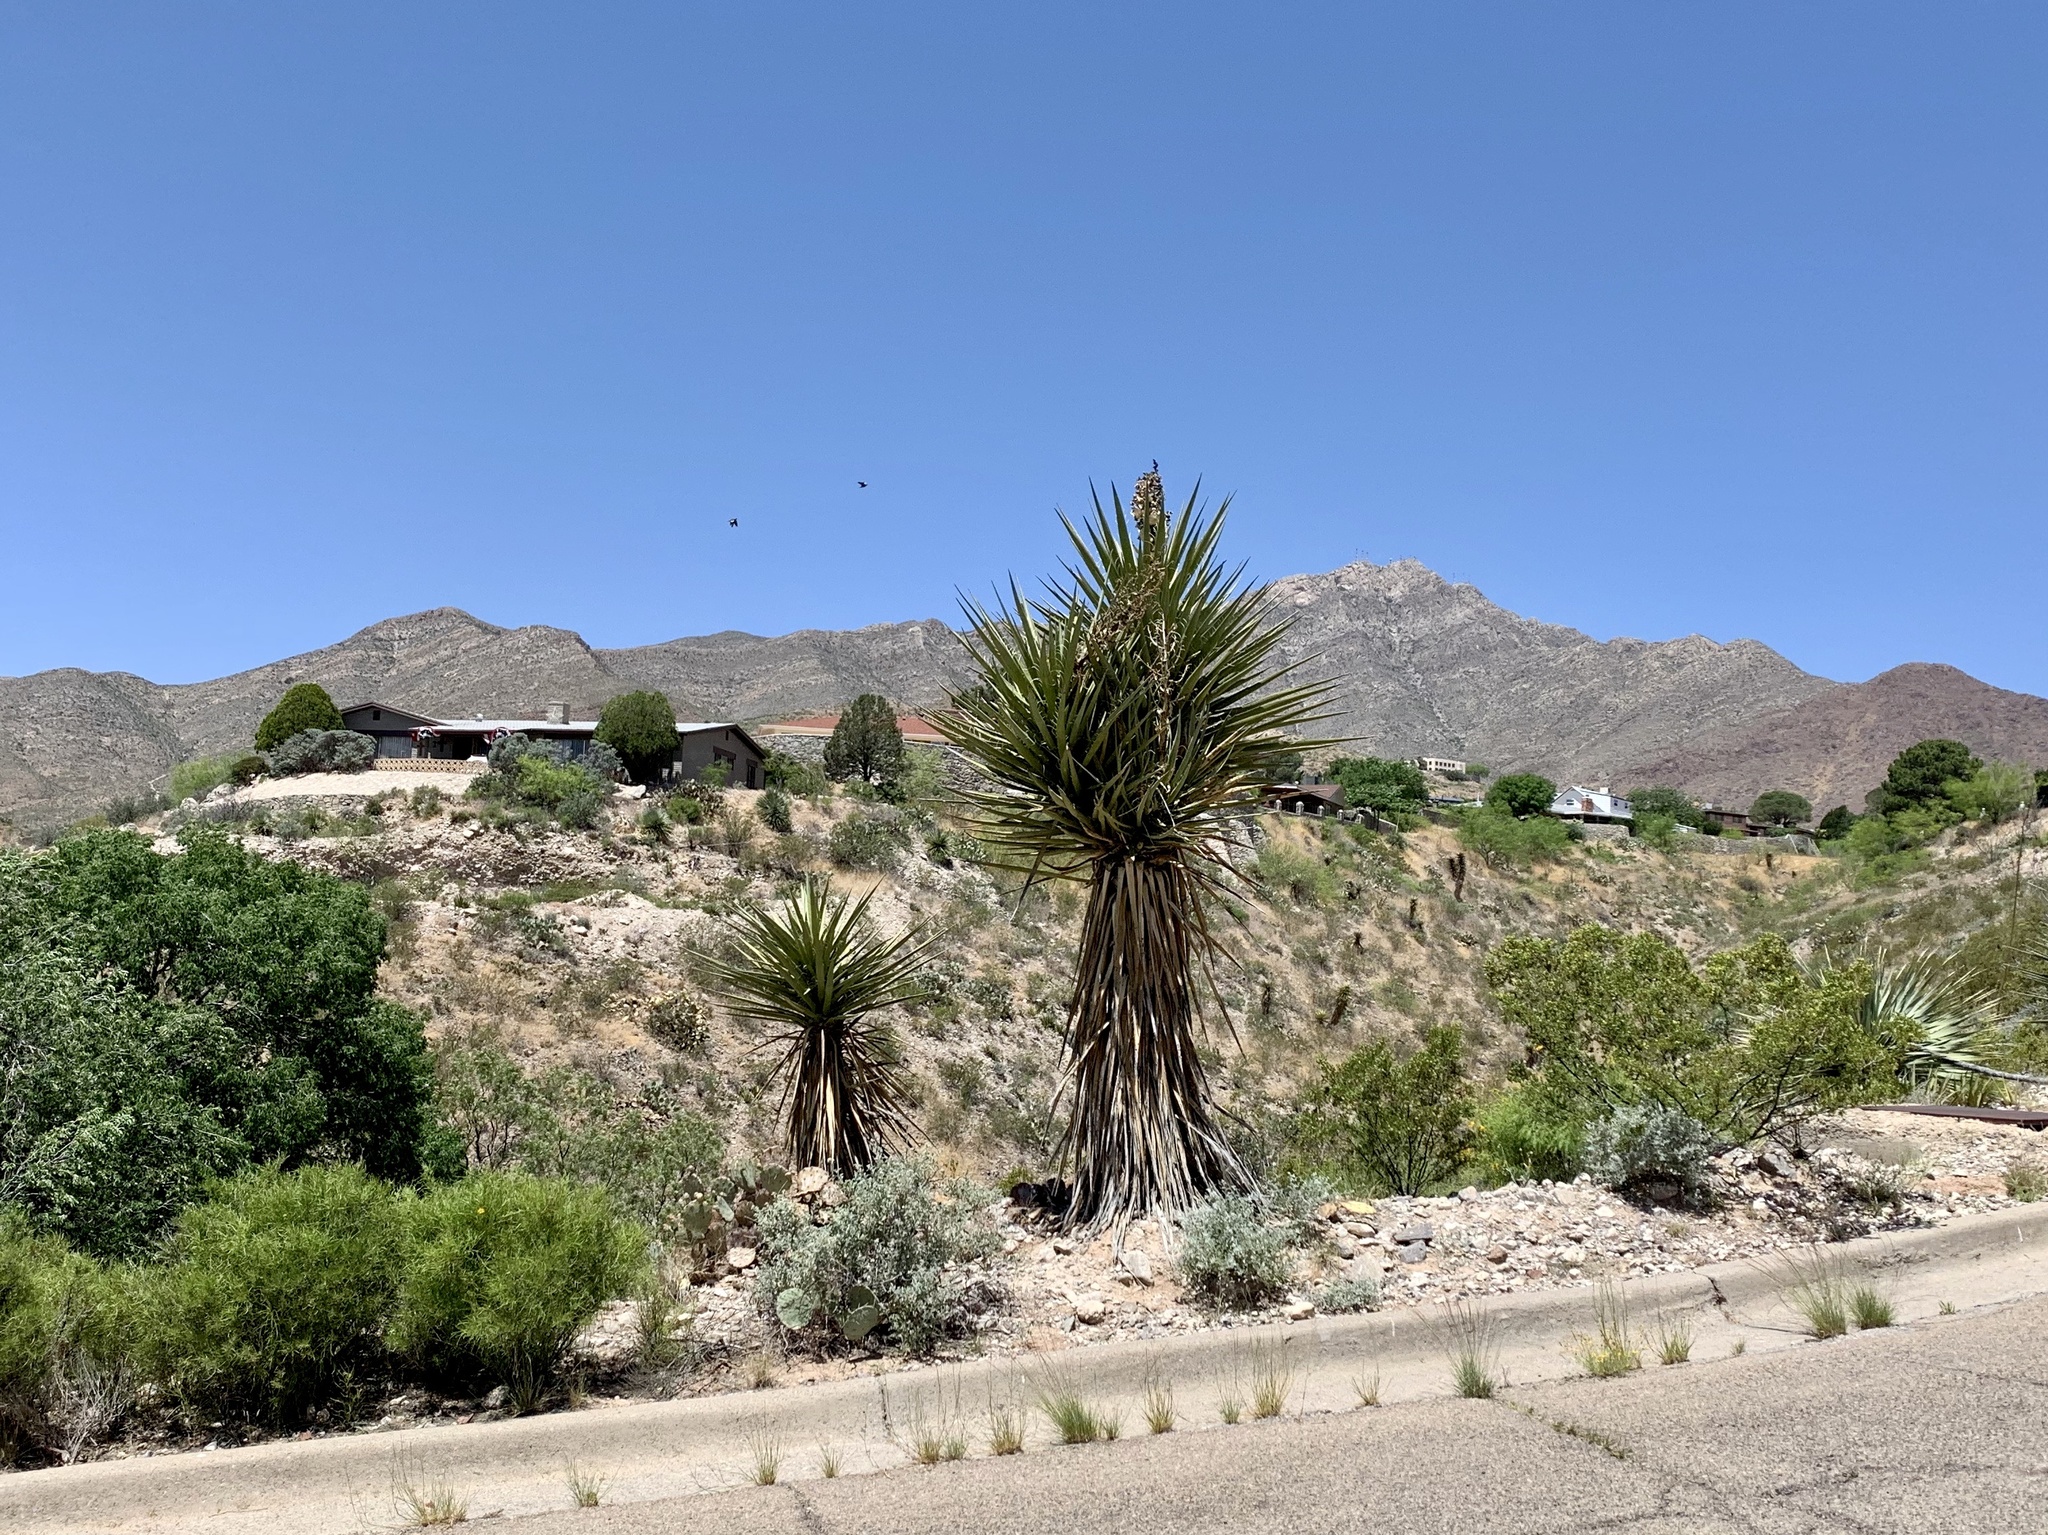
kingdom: Plantae
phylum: Tracheophyta
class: Liliopsida
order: Asparagales
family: Asparagaceae
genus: Yucca
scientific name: Yucca treculiana
